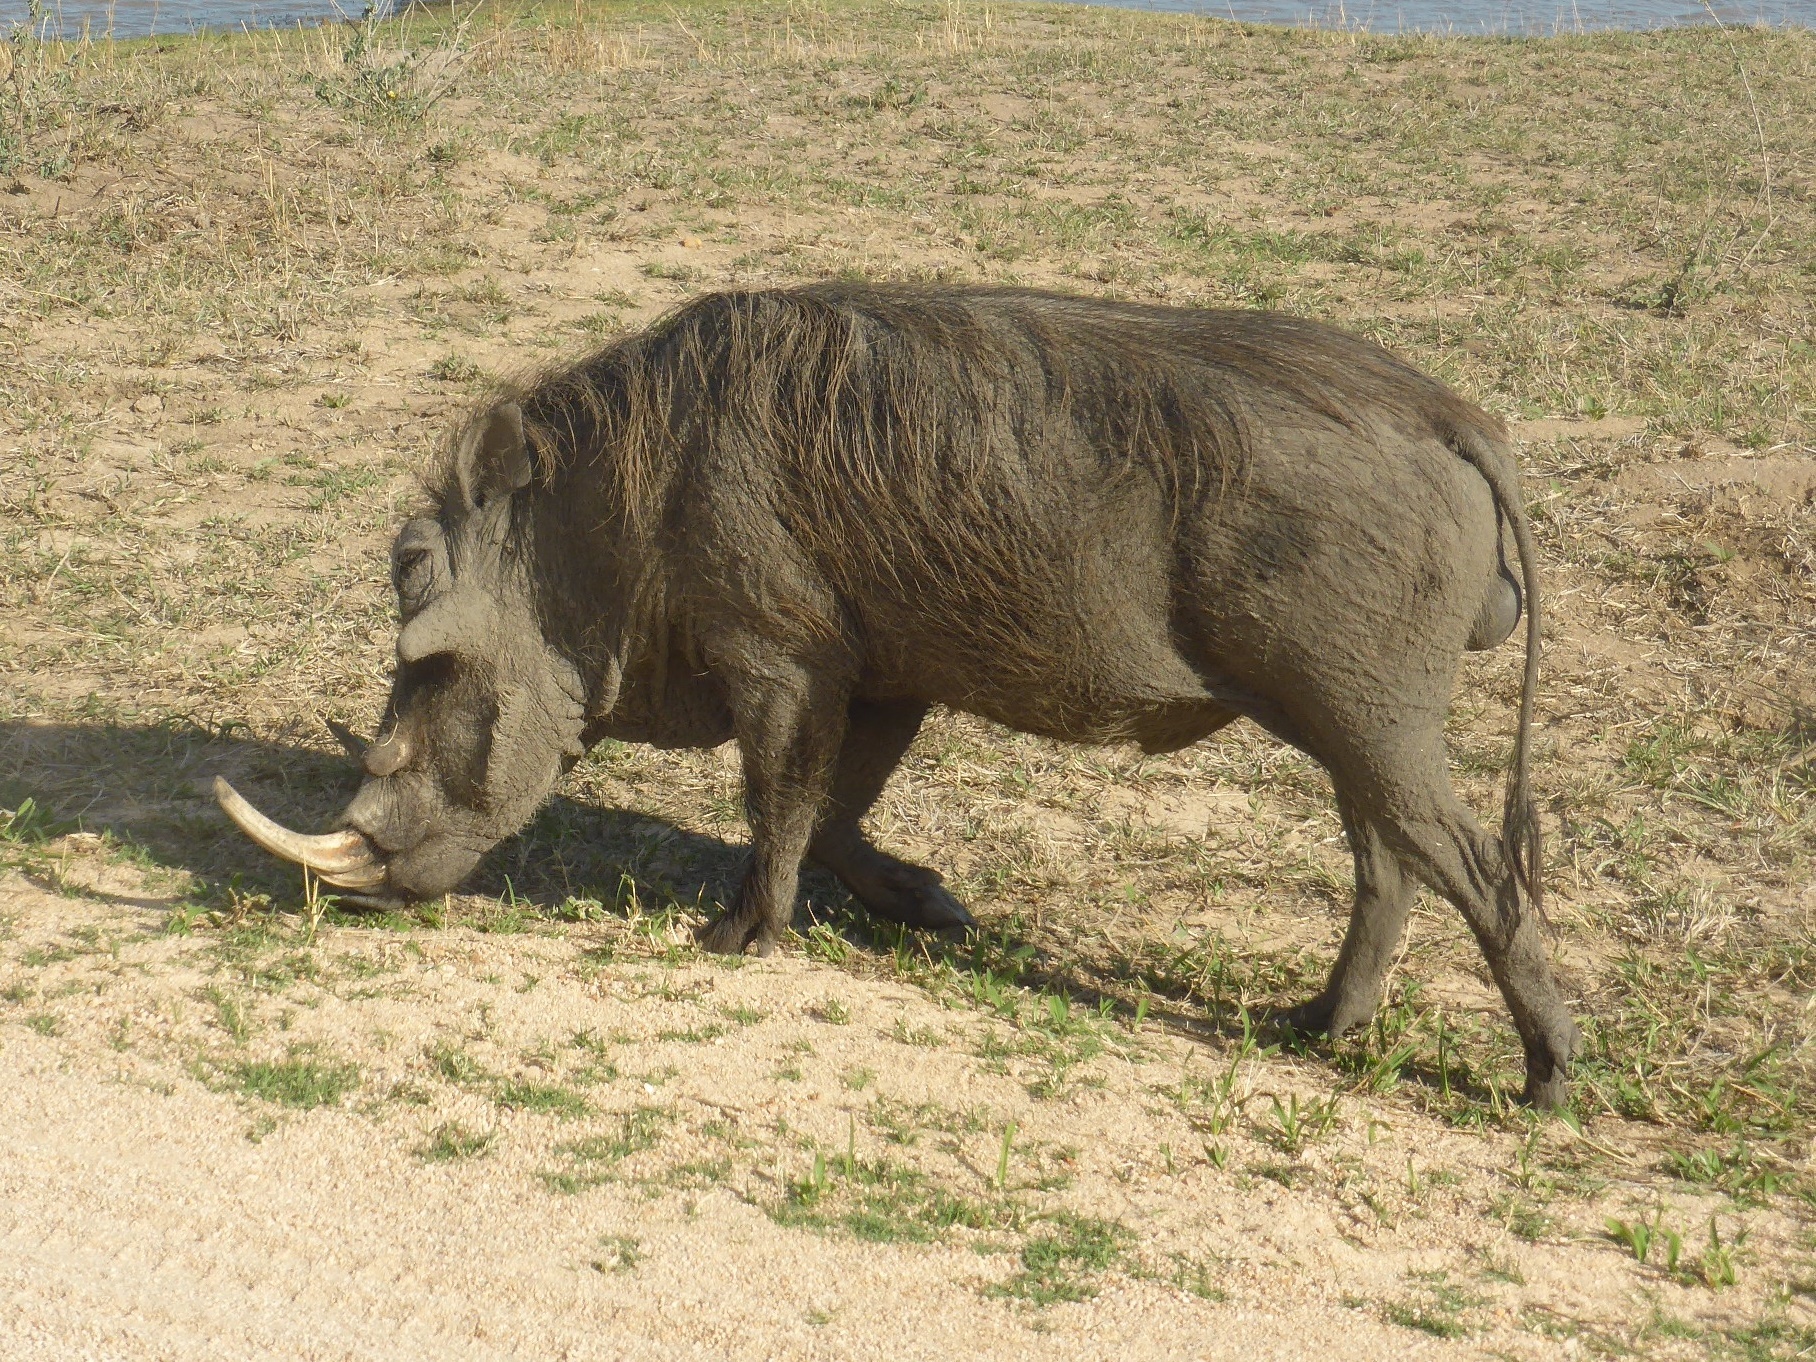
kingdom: Animalia
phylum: Chordata
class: Mammalia
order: Artiodactyla
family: Suidae
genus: Phacochoerus
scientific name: Phacochoerus africanus
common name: Common warthog
